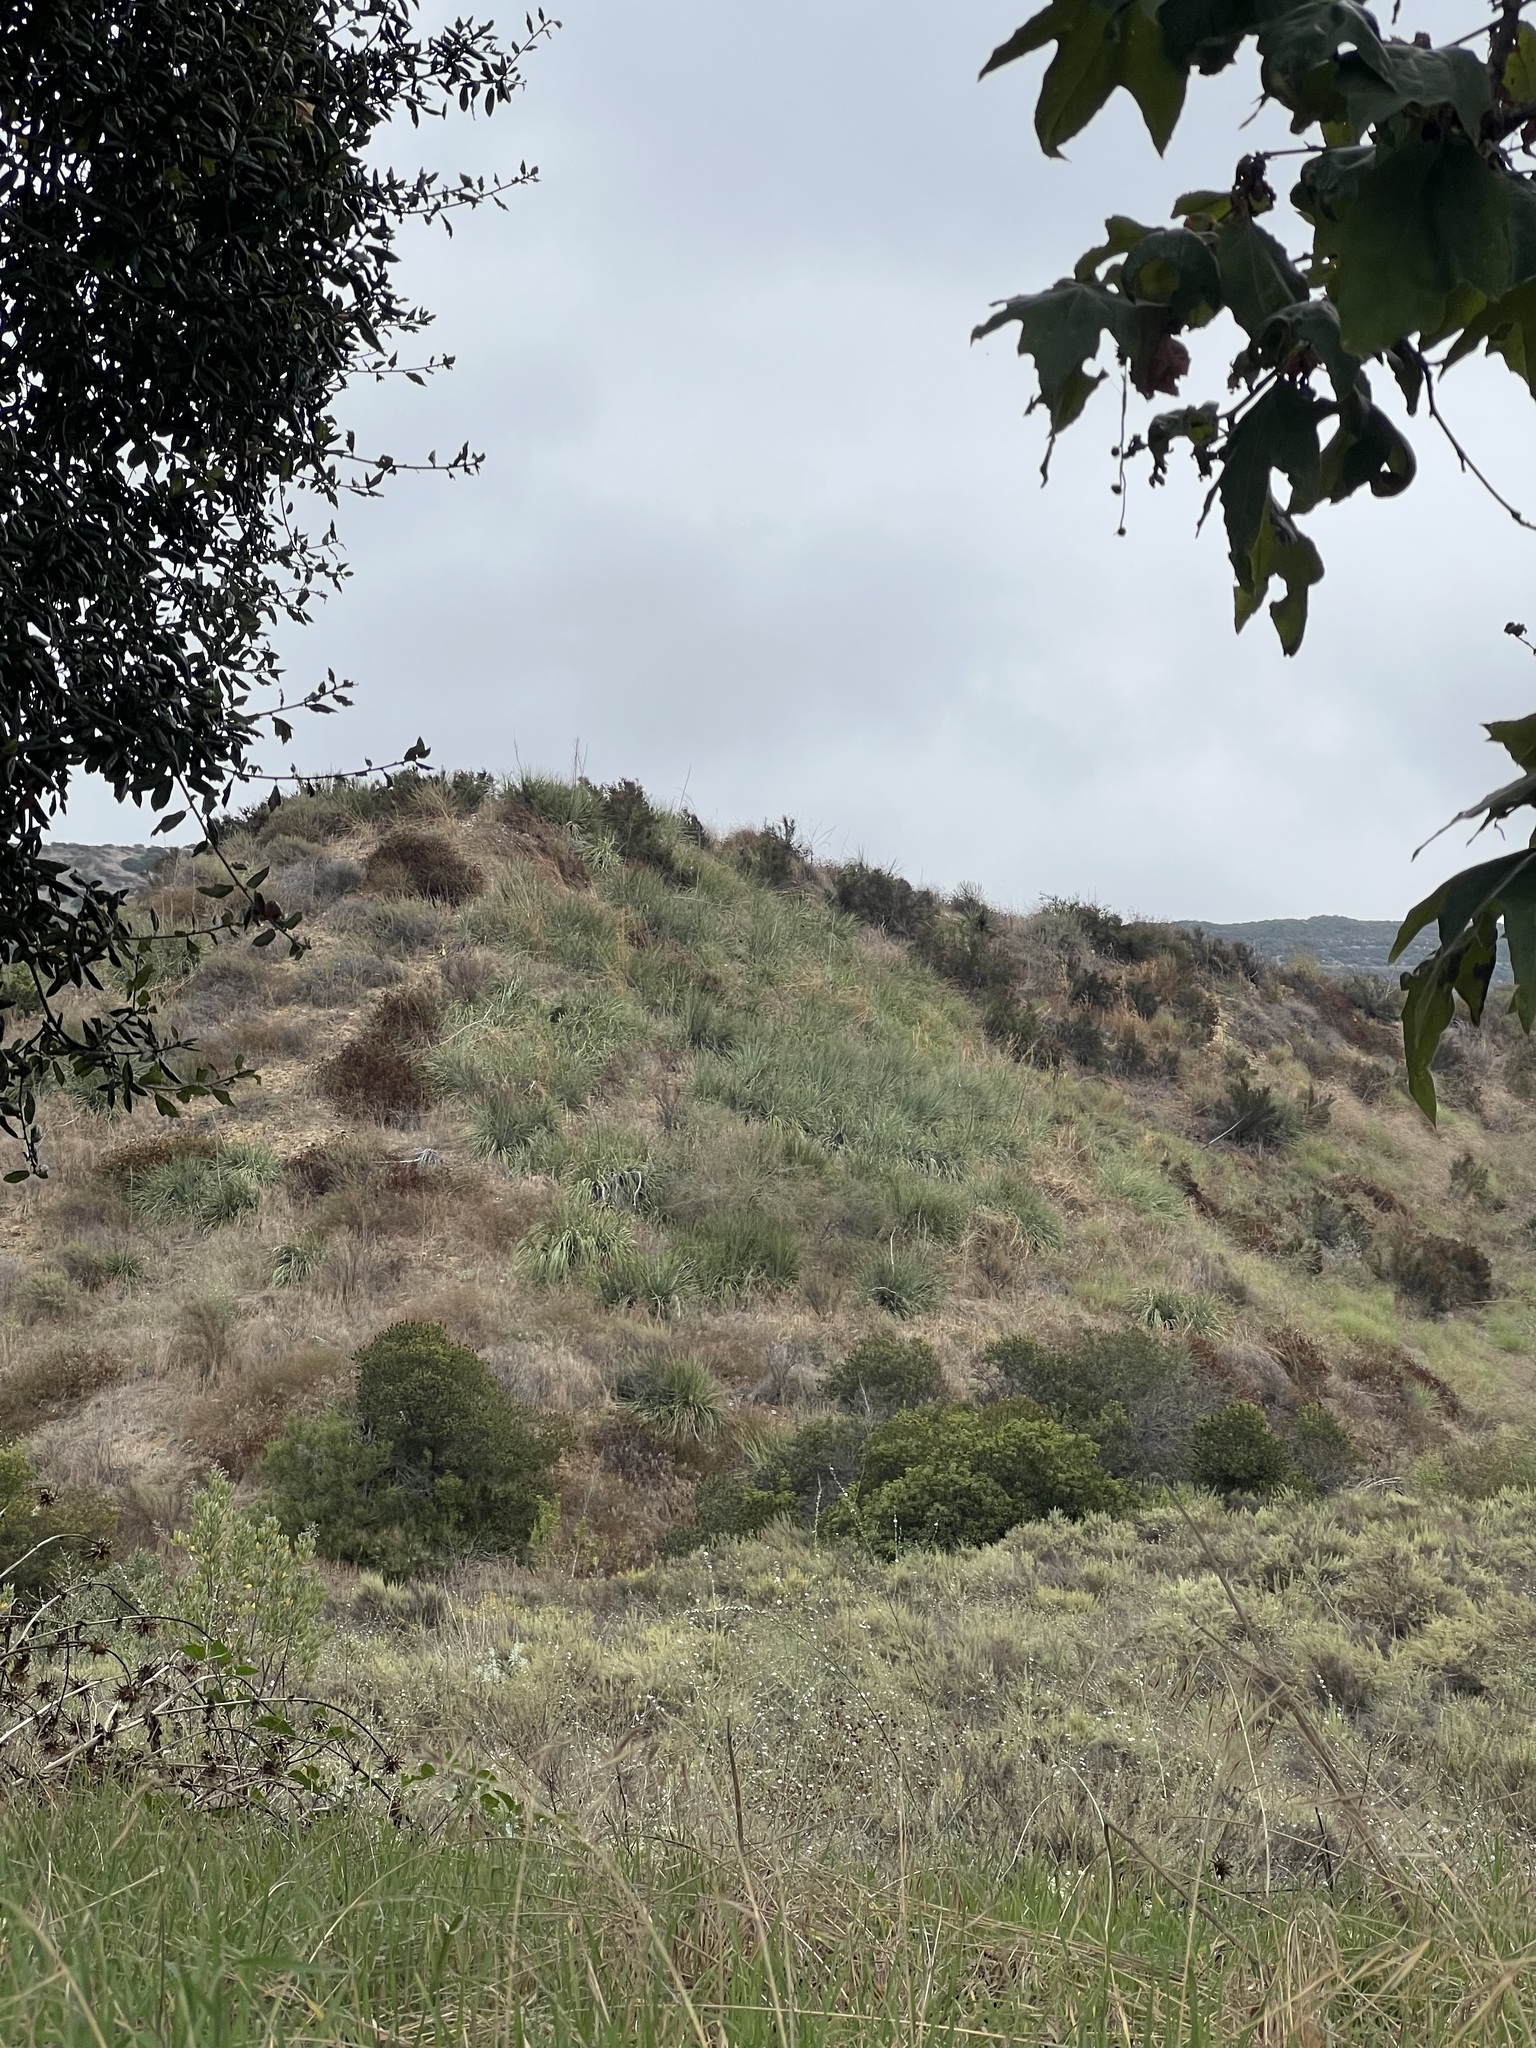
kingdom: Plantae
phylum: Tracheophyta
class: Liliopsida
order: Asparagales
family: Asparagaceae
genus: Nolina
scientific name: Nolina cismontana
